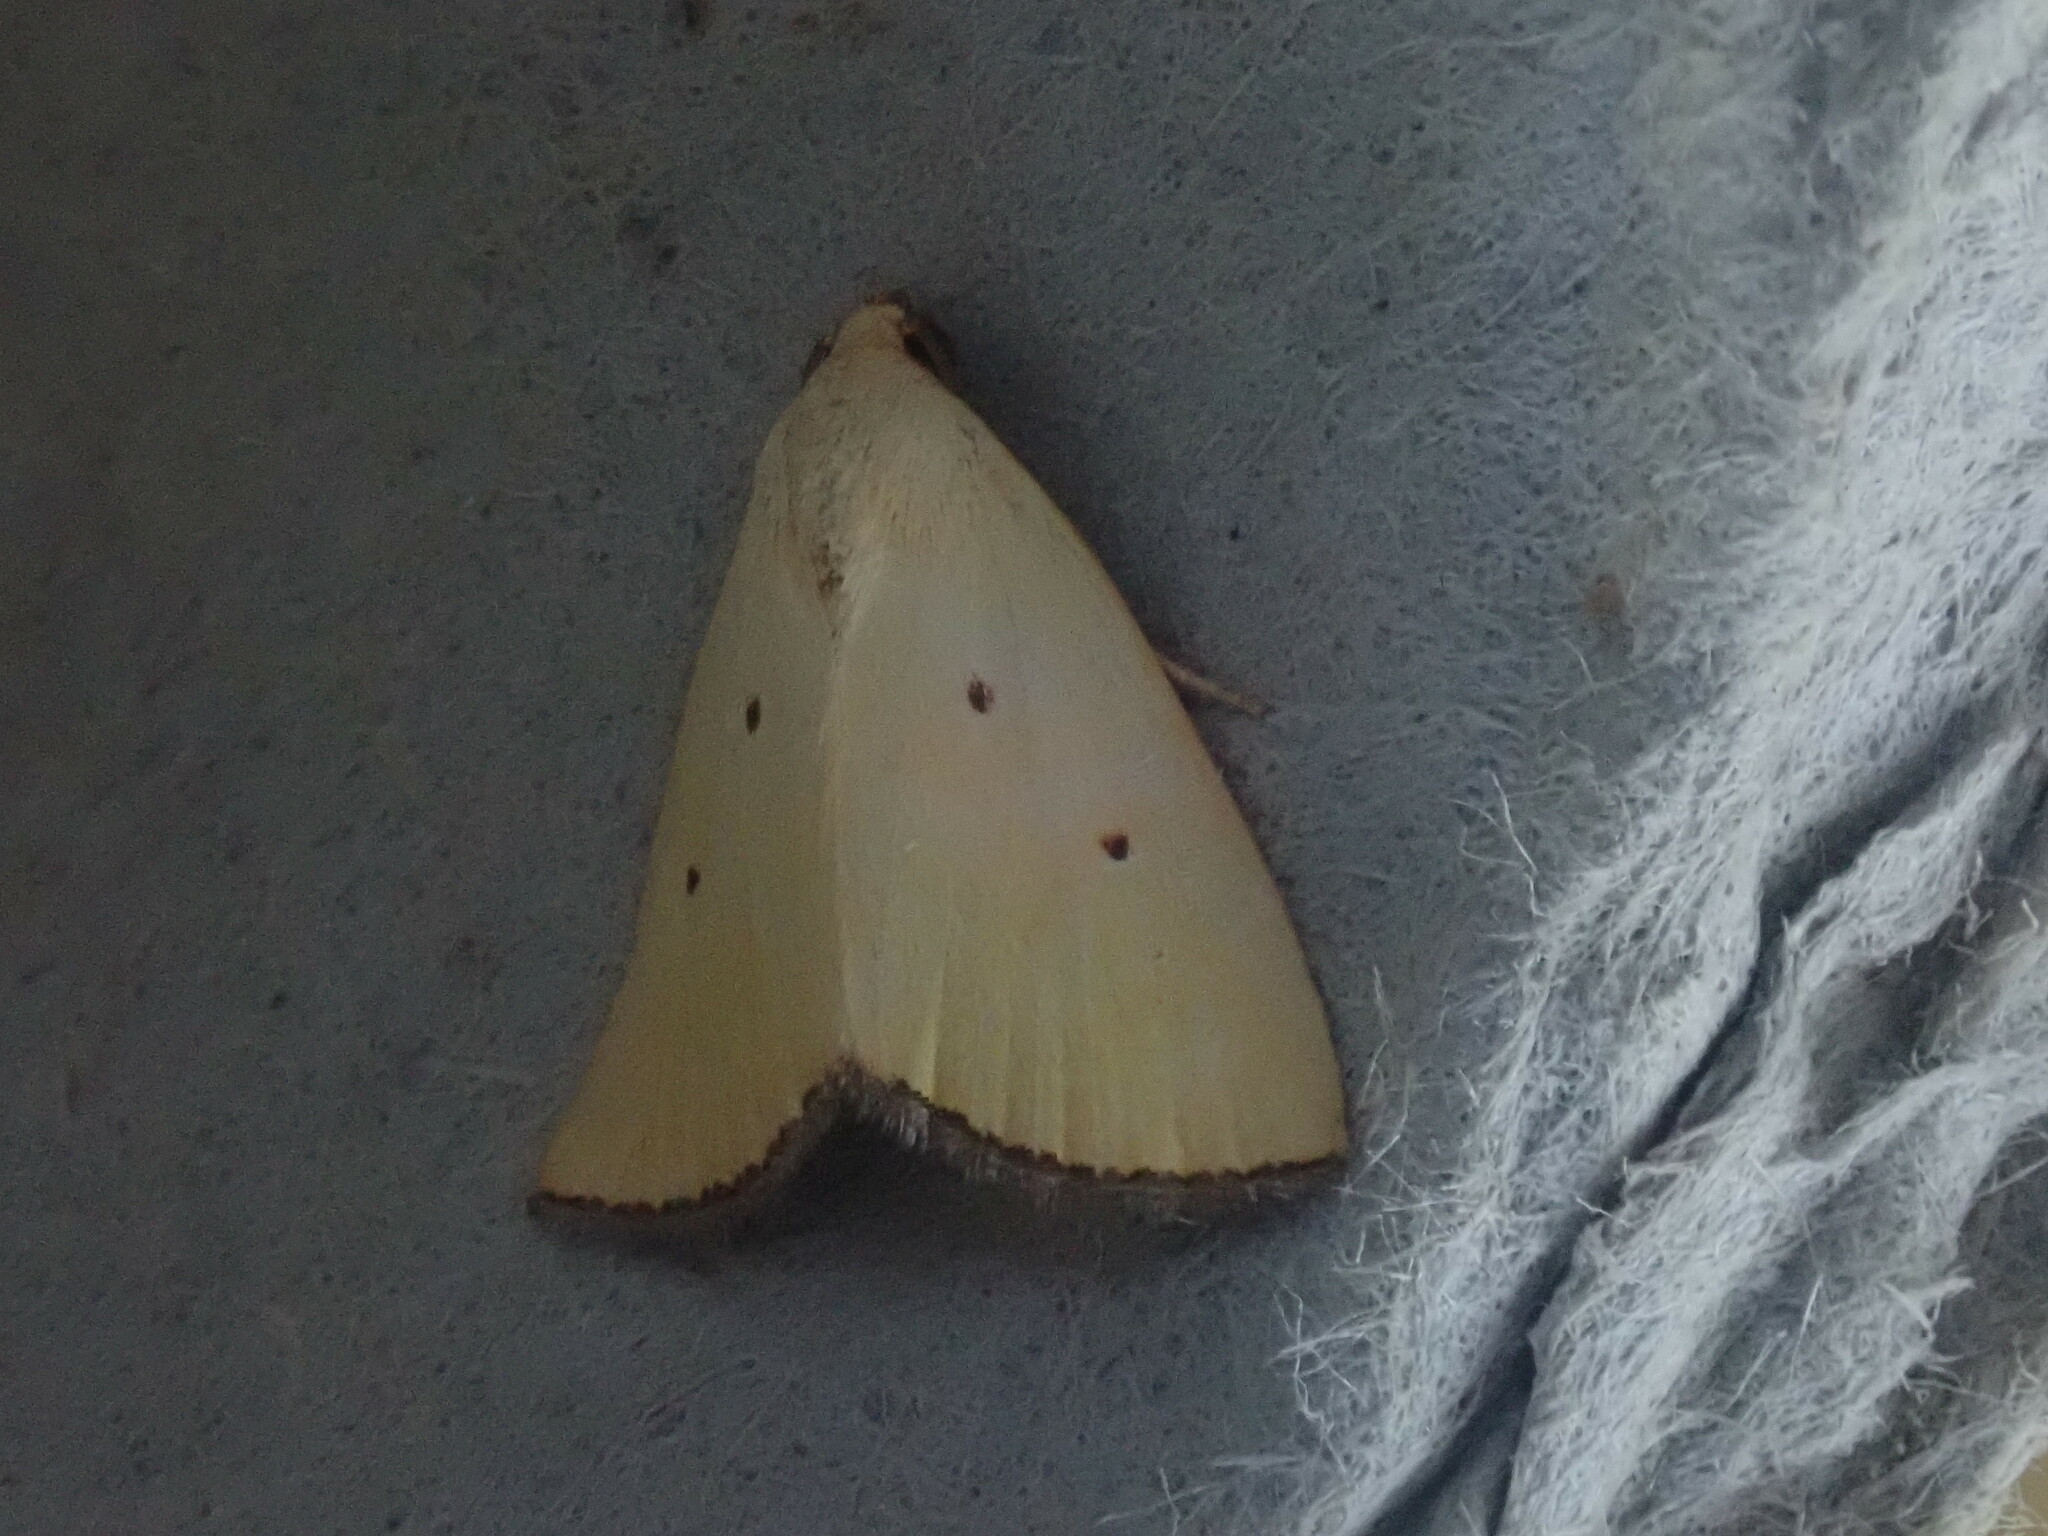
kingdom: Animalia
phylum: Arthropoda
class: Insecta
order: Lepidoptera
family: Noctuidae
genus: Marimatha
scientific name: Marimatha nigrofimbria
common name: Black-bordered lemon moth
